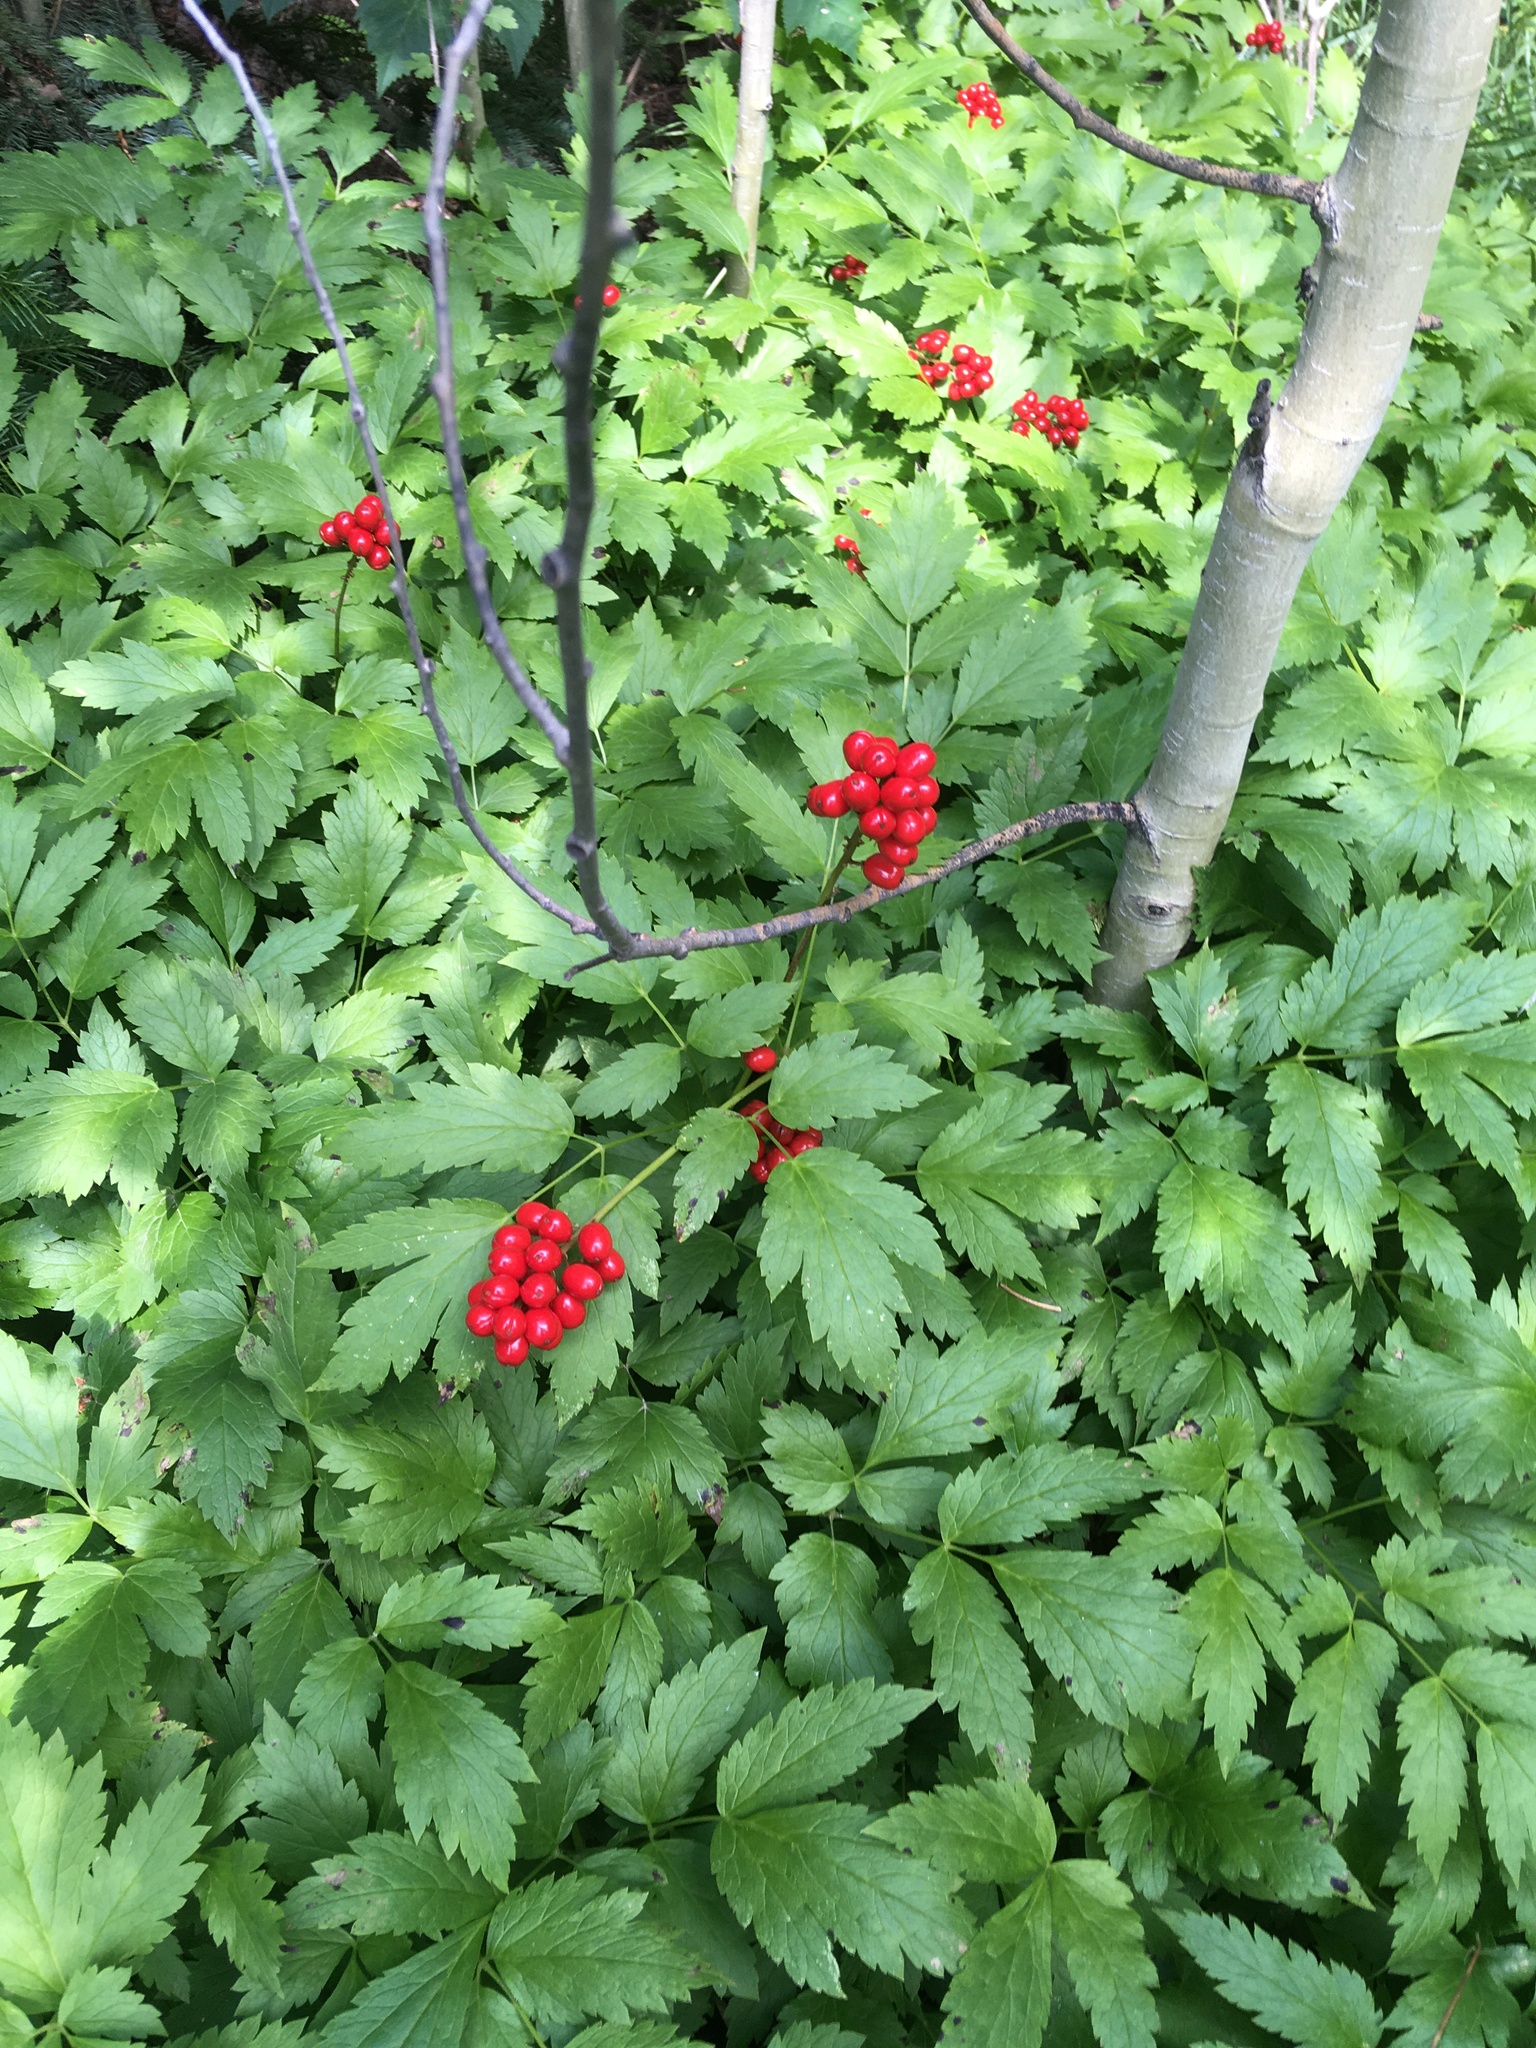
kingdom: Plantae
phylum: Tracheophyta
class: Magnoliopsida
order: Ranunculales
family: Ranunculaceae
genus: Actaea
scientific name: Actaea rubra
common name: Red baneberry
